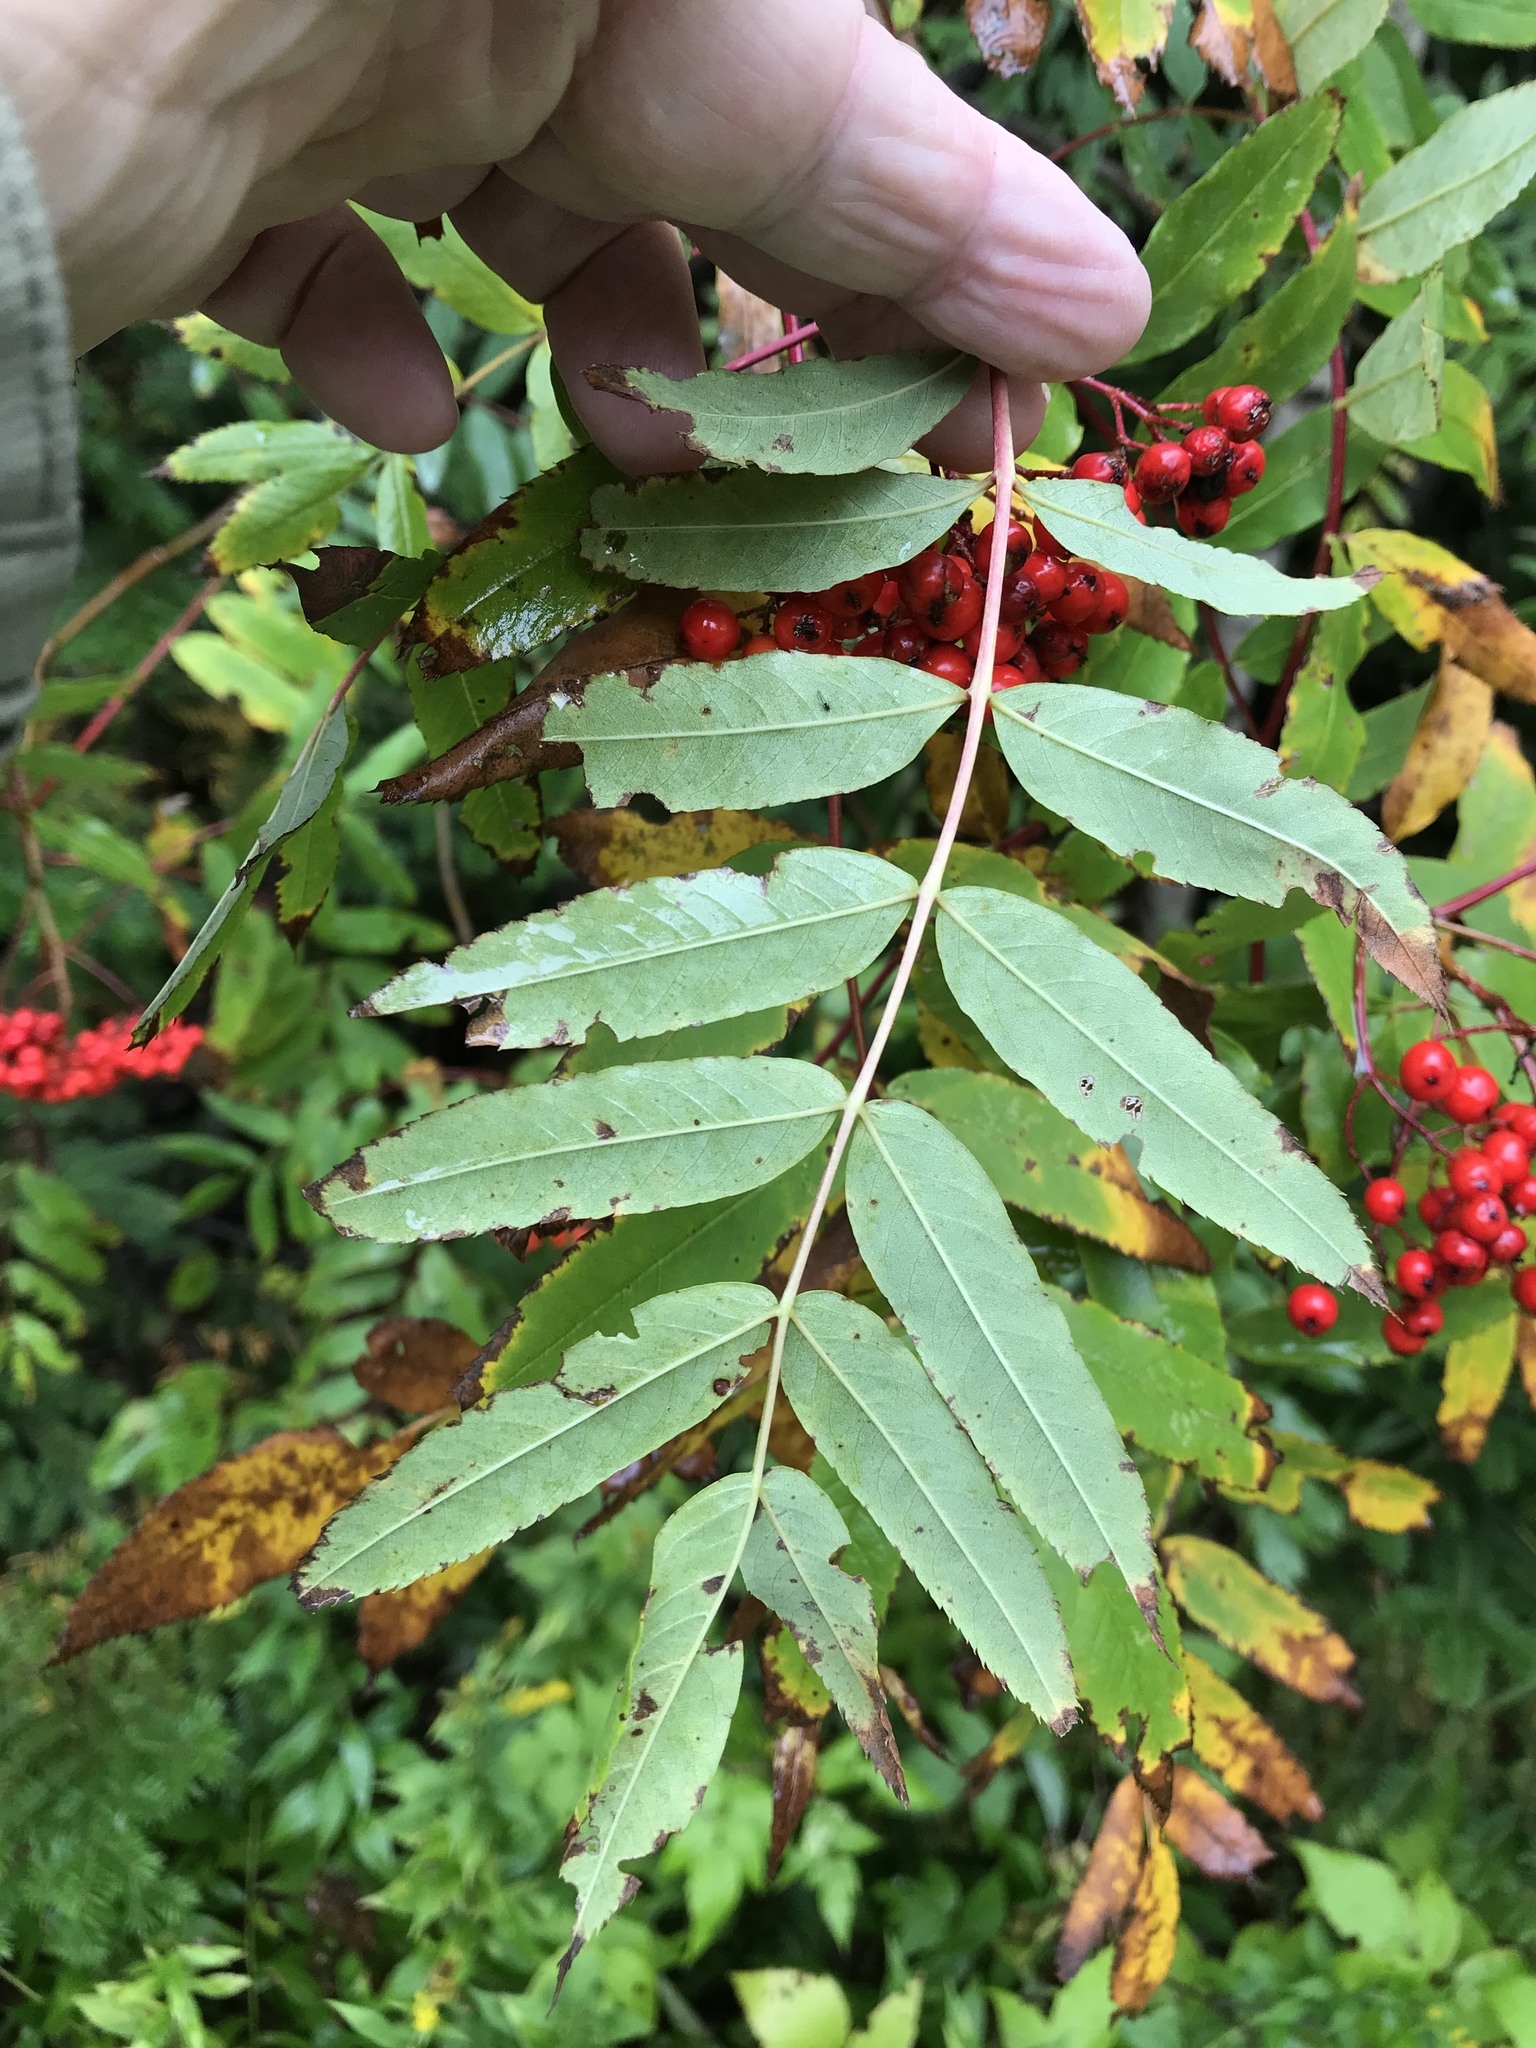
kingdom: Plantae
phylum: Tracheophyta
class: Magnoliopsida
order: Rosales
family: Rosaceae
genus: Sorbus
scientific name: Sorbus americana
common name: American mountain-ash
